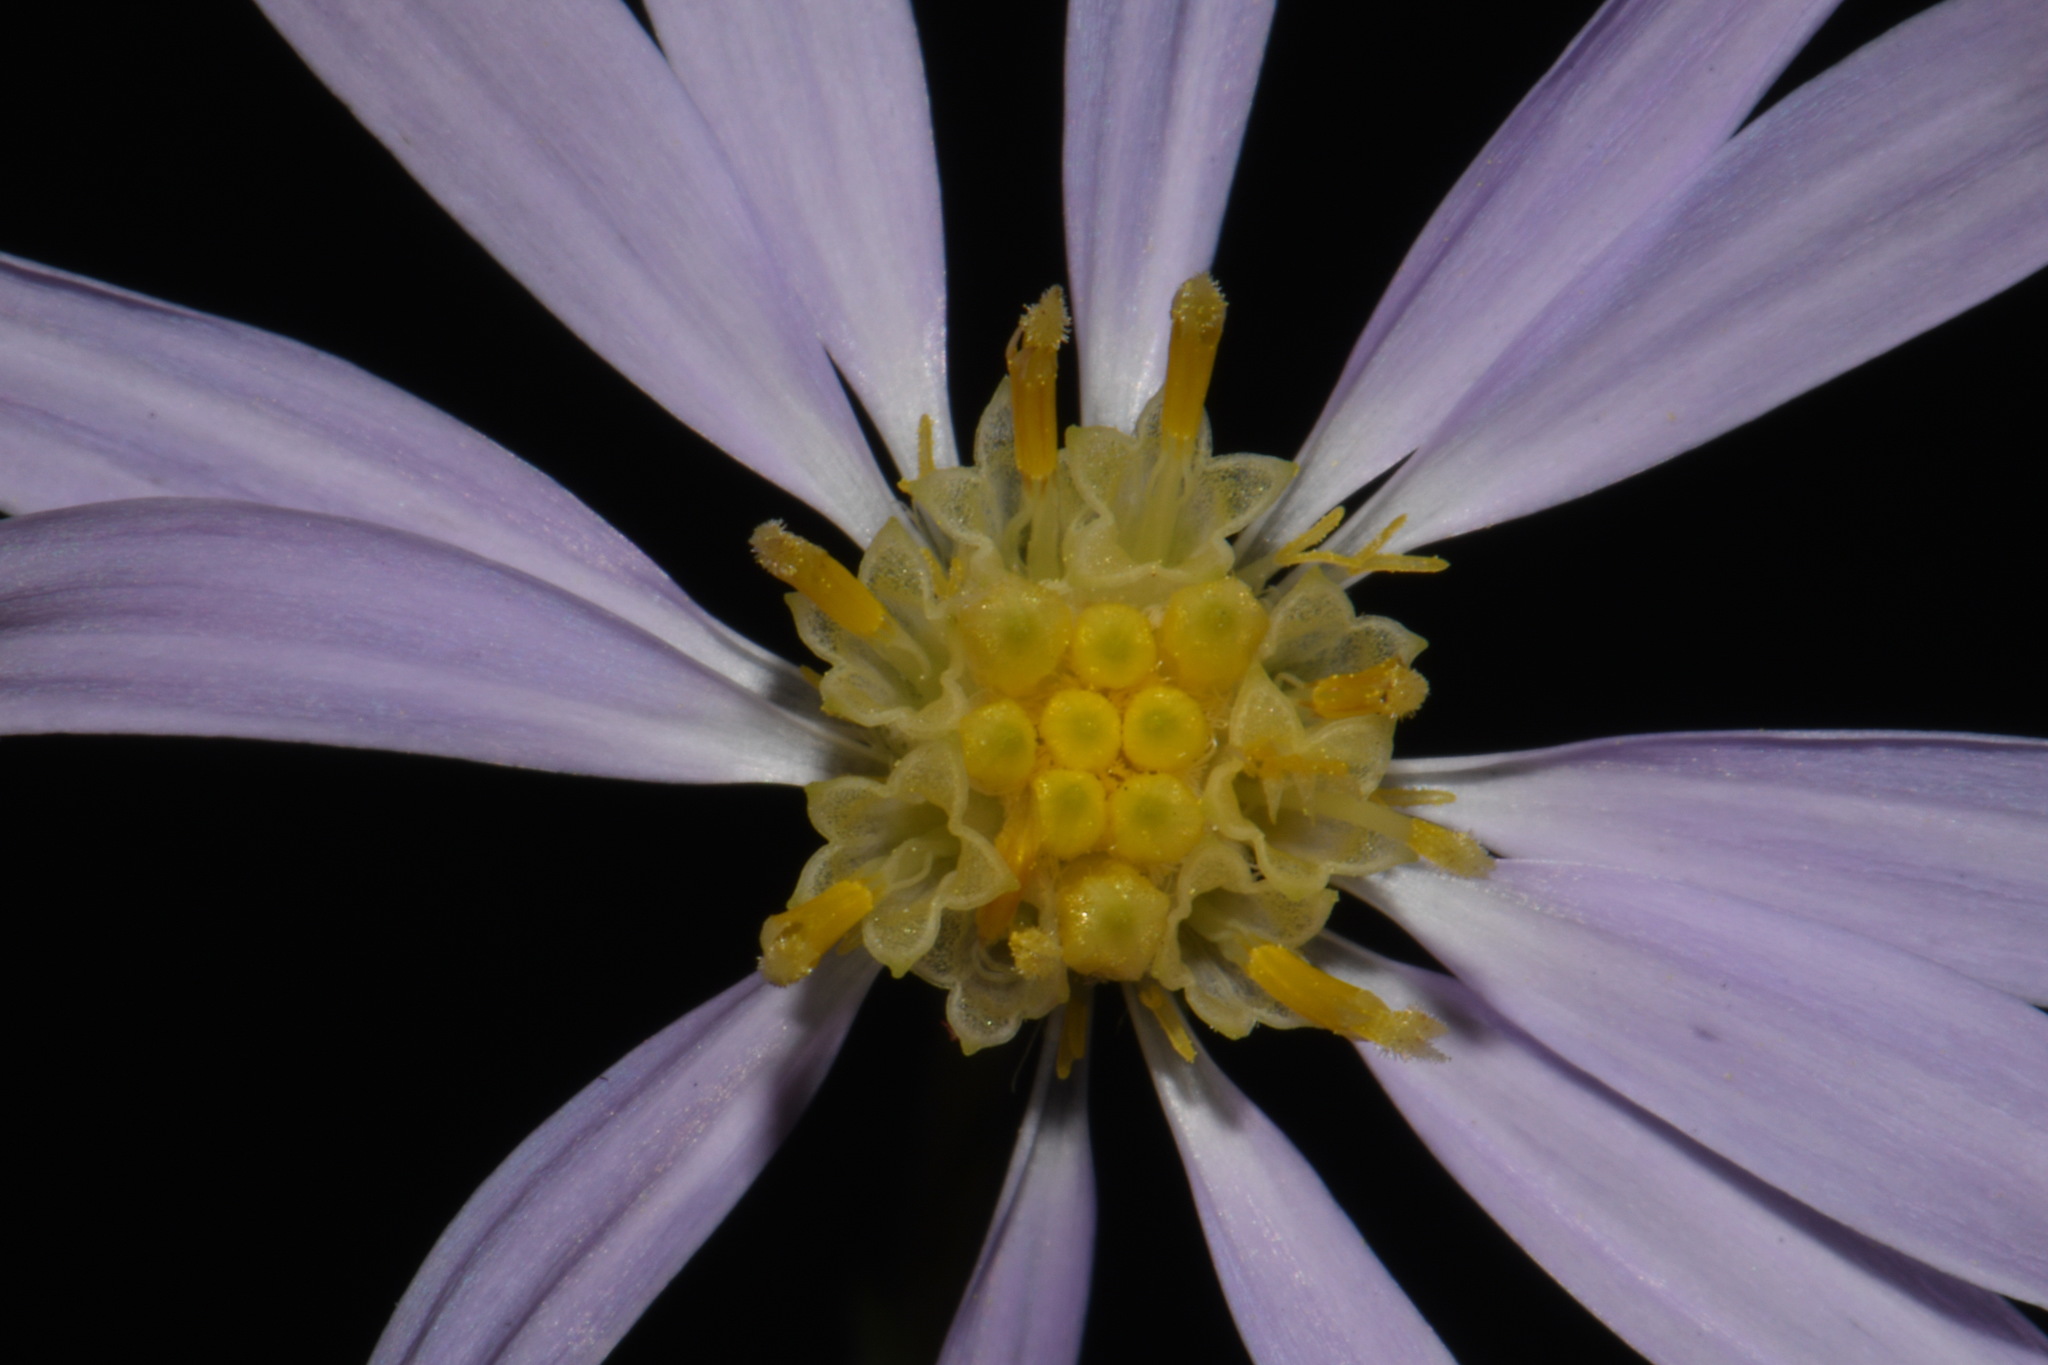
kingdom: Plantae
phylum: Tracheophyta
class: Magnoliopsida
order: Asterales
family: Asteraceae
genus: Symphyotrichum
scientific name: Symphyotrichum undulatum
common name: Clasping heart-leaf aster
